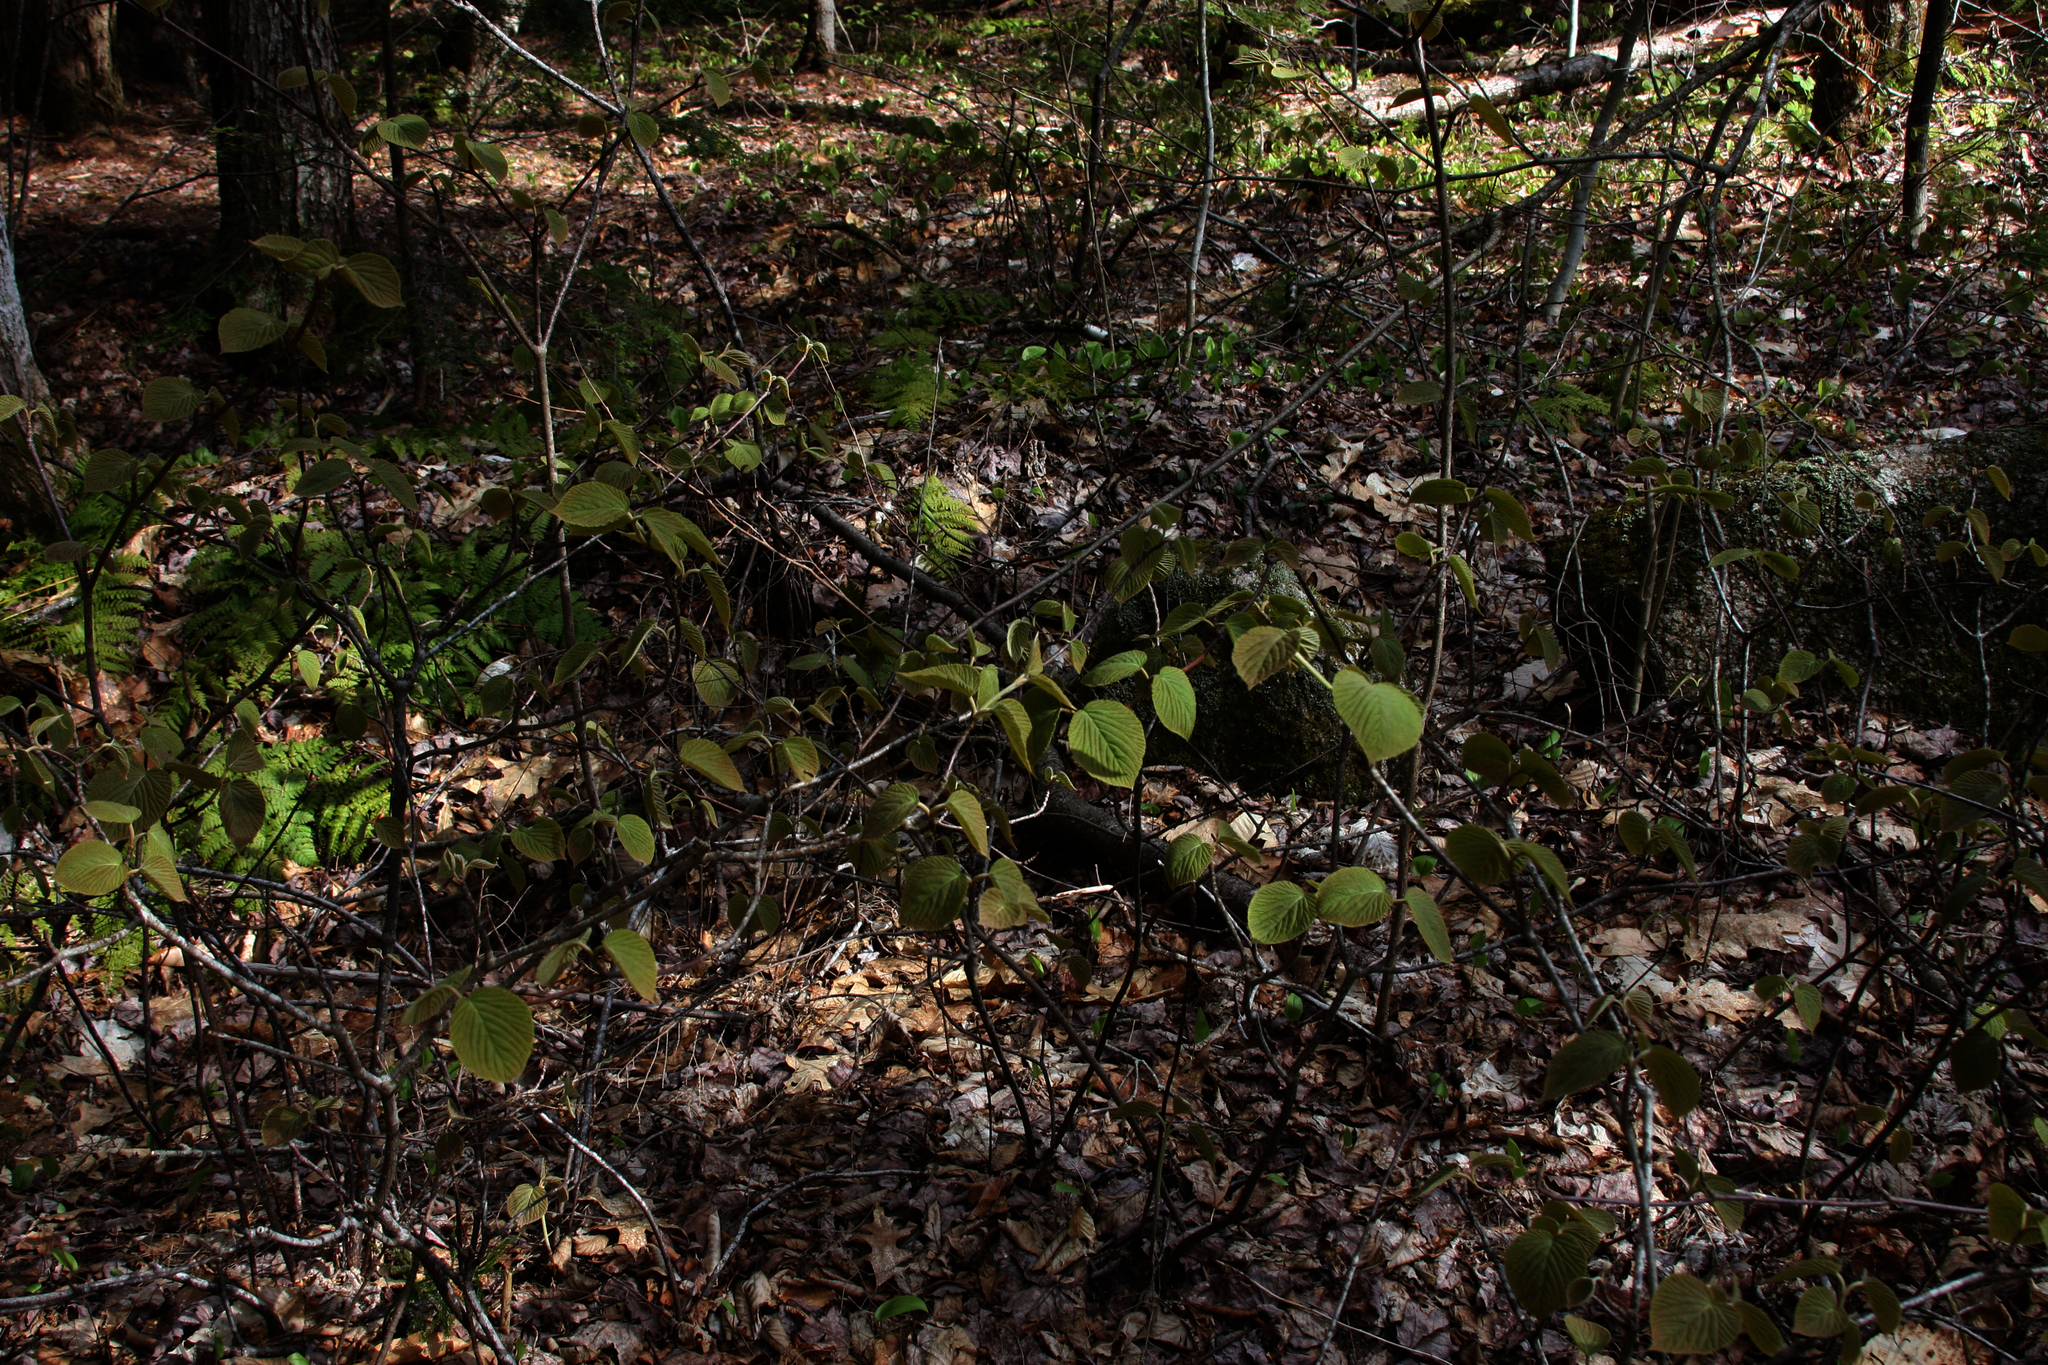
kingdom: Plantae
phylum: Tracheophyta
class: Magnoliopsida
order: Dipsacales
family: Viburnaceae
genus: Viburnum
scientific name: Viburnum lantanoides
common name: Hobblebush
